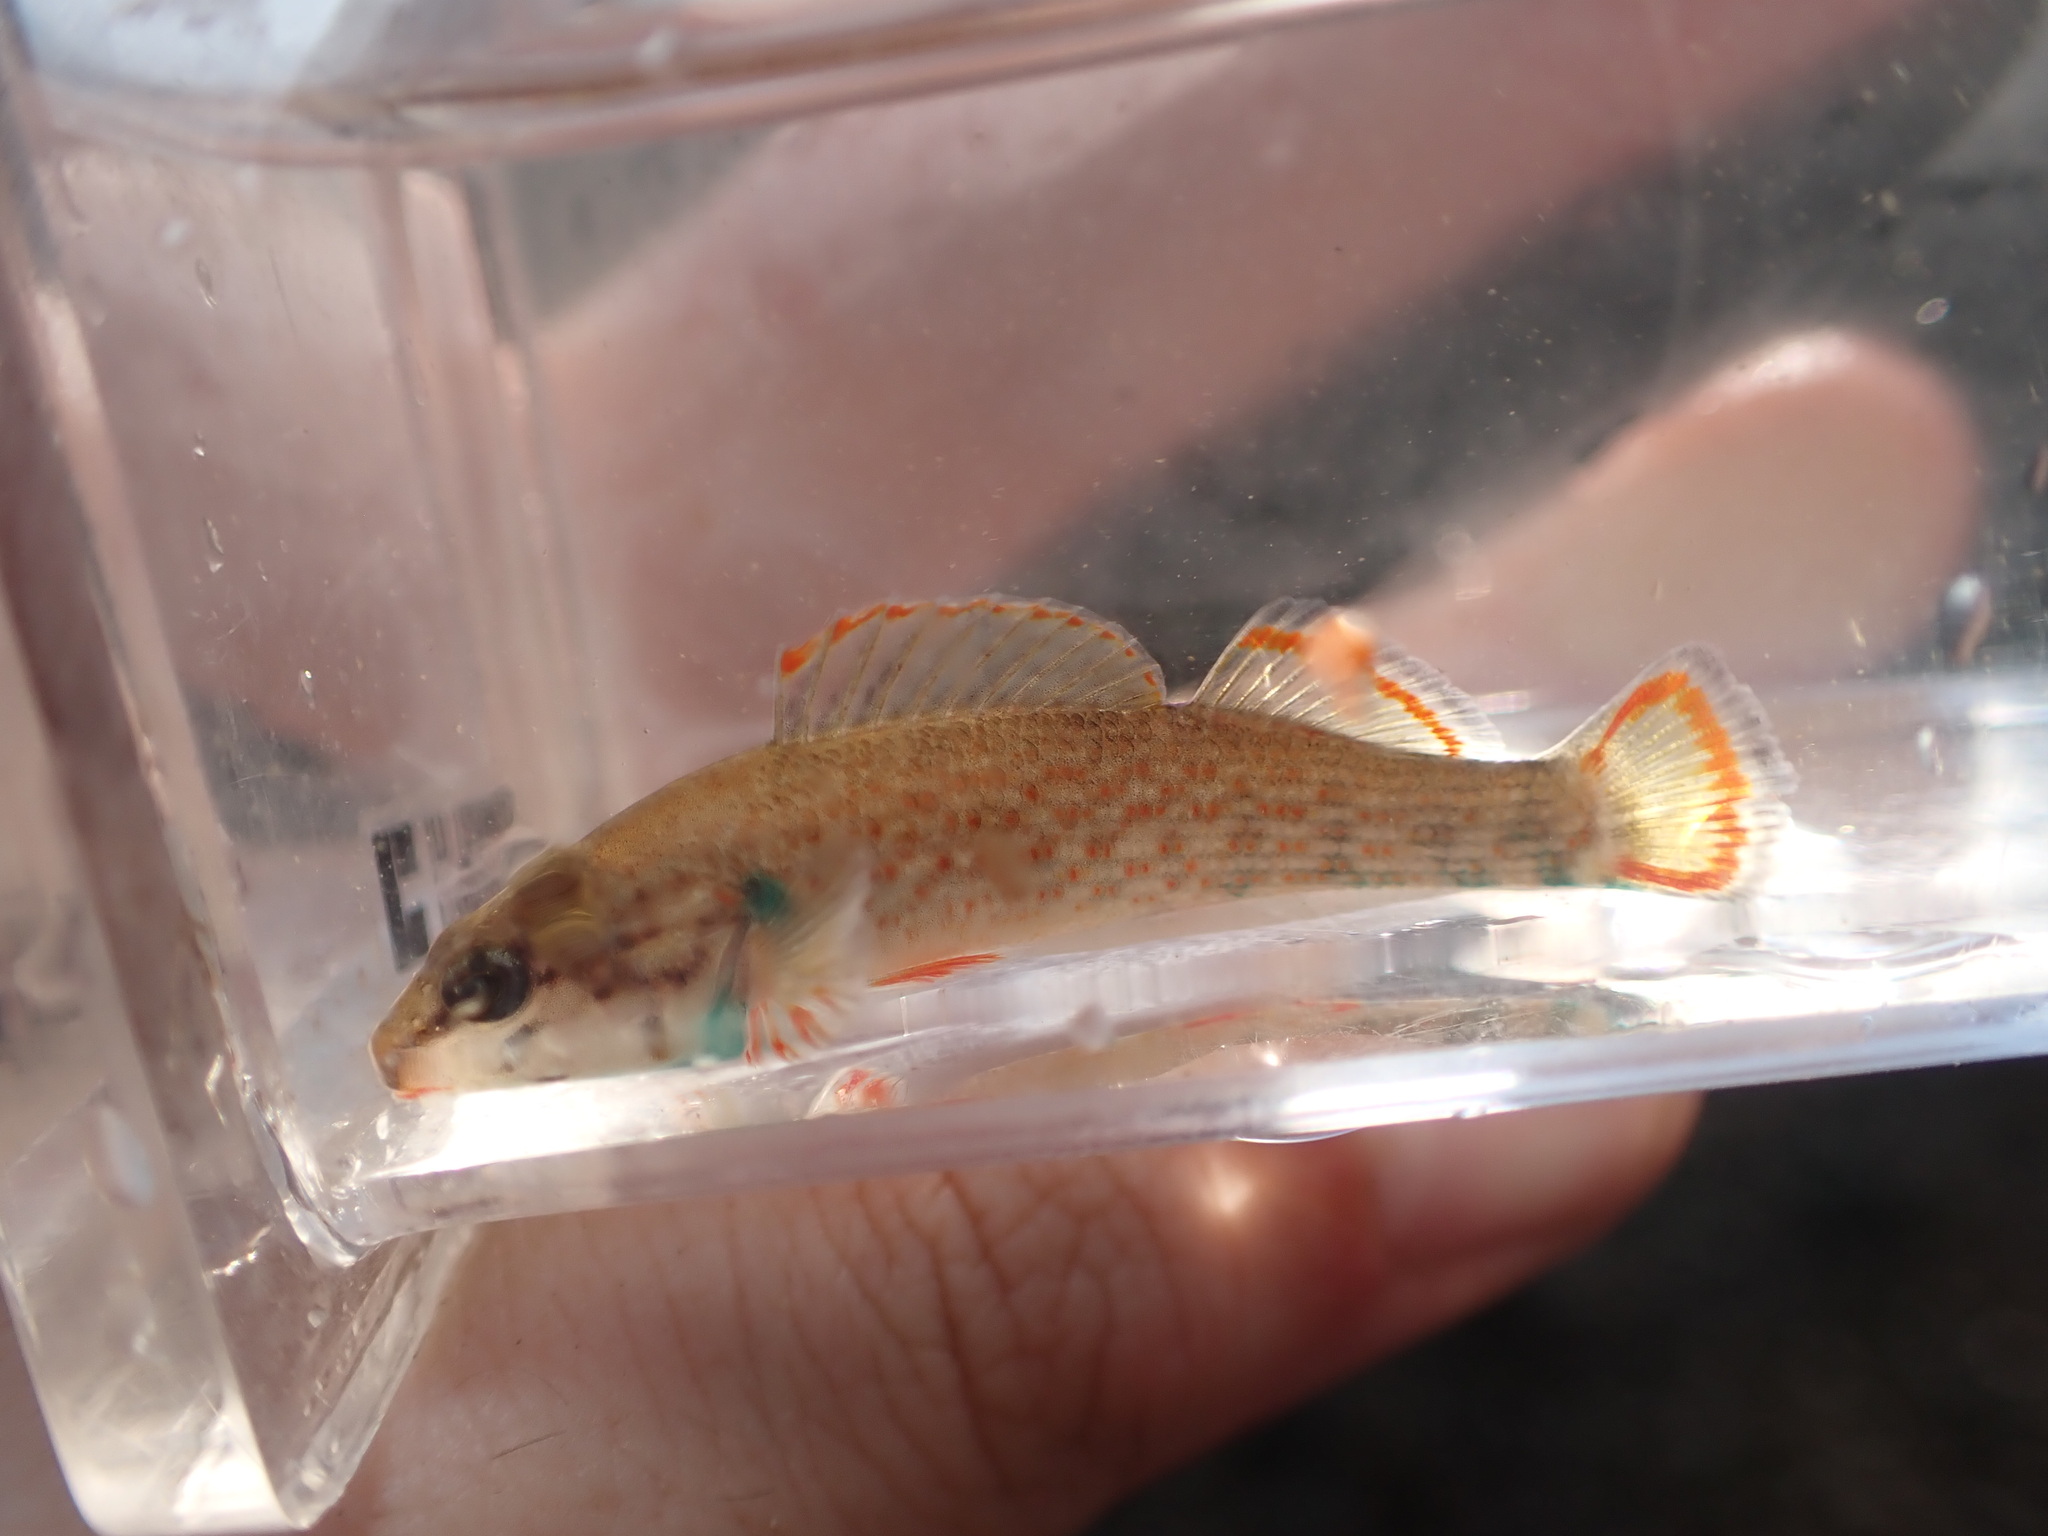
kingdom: Animalia
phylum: Chordata
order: Perciformes
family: Percidae
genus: Etheostoma
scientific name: Etheostoma rufilineatum
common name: Redline darter
